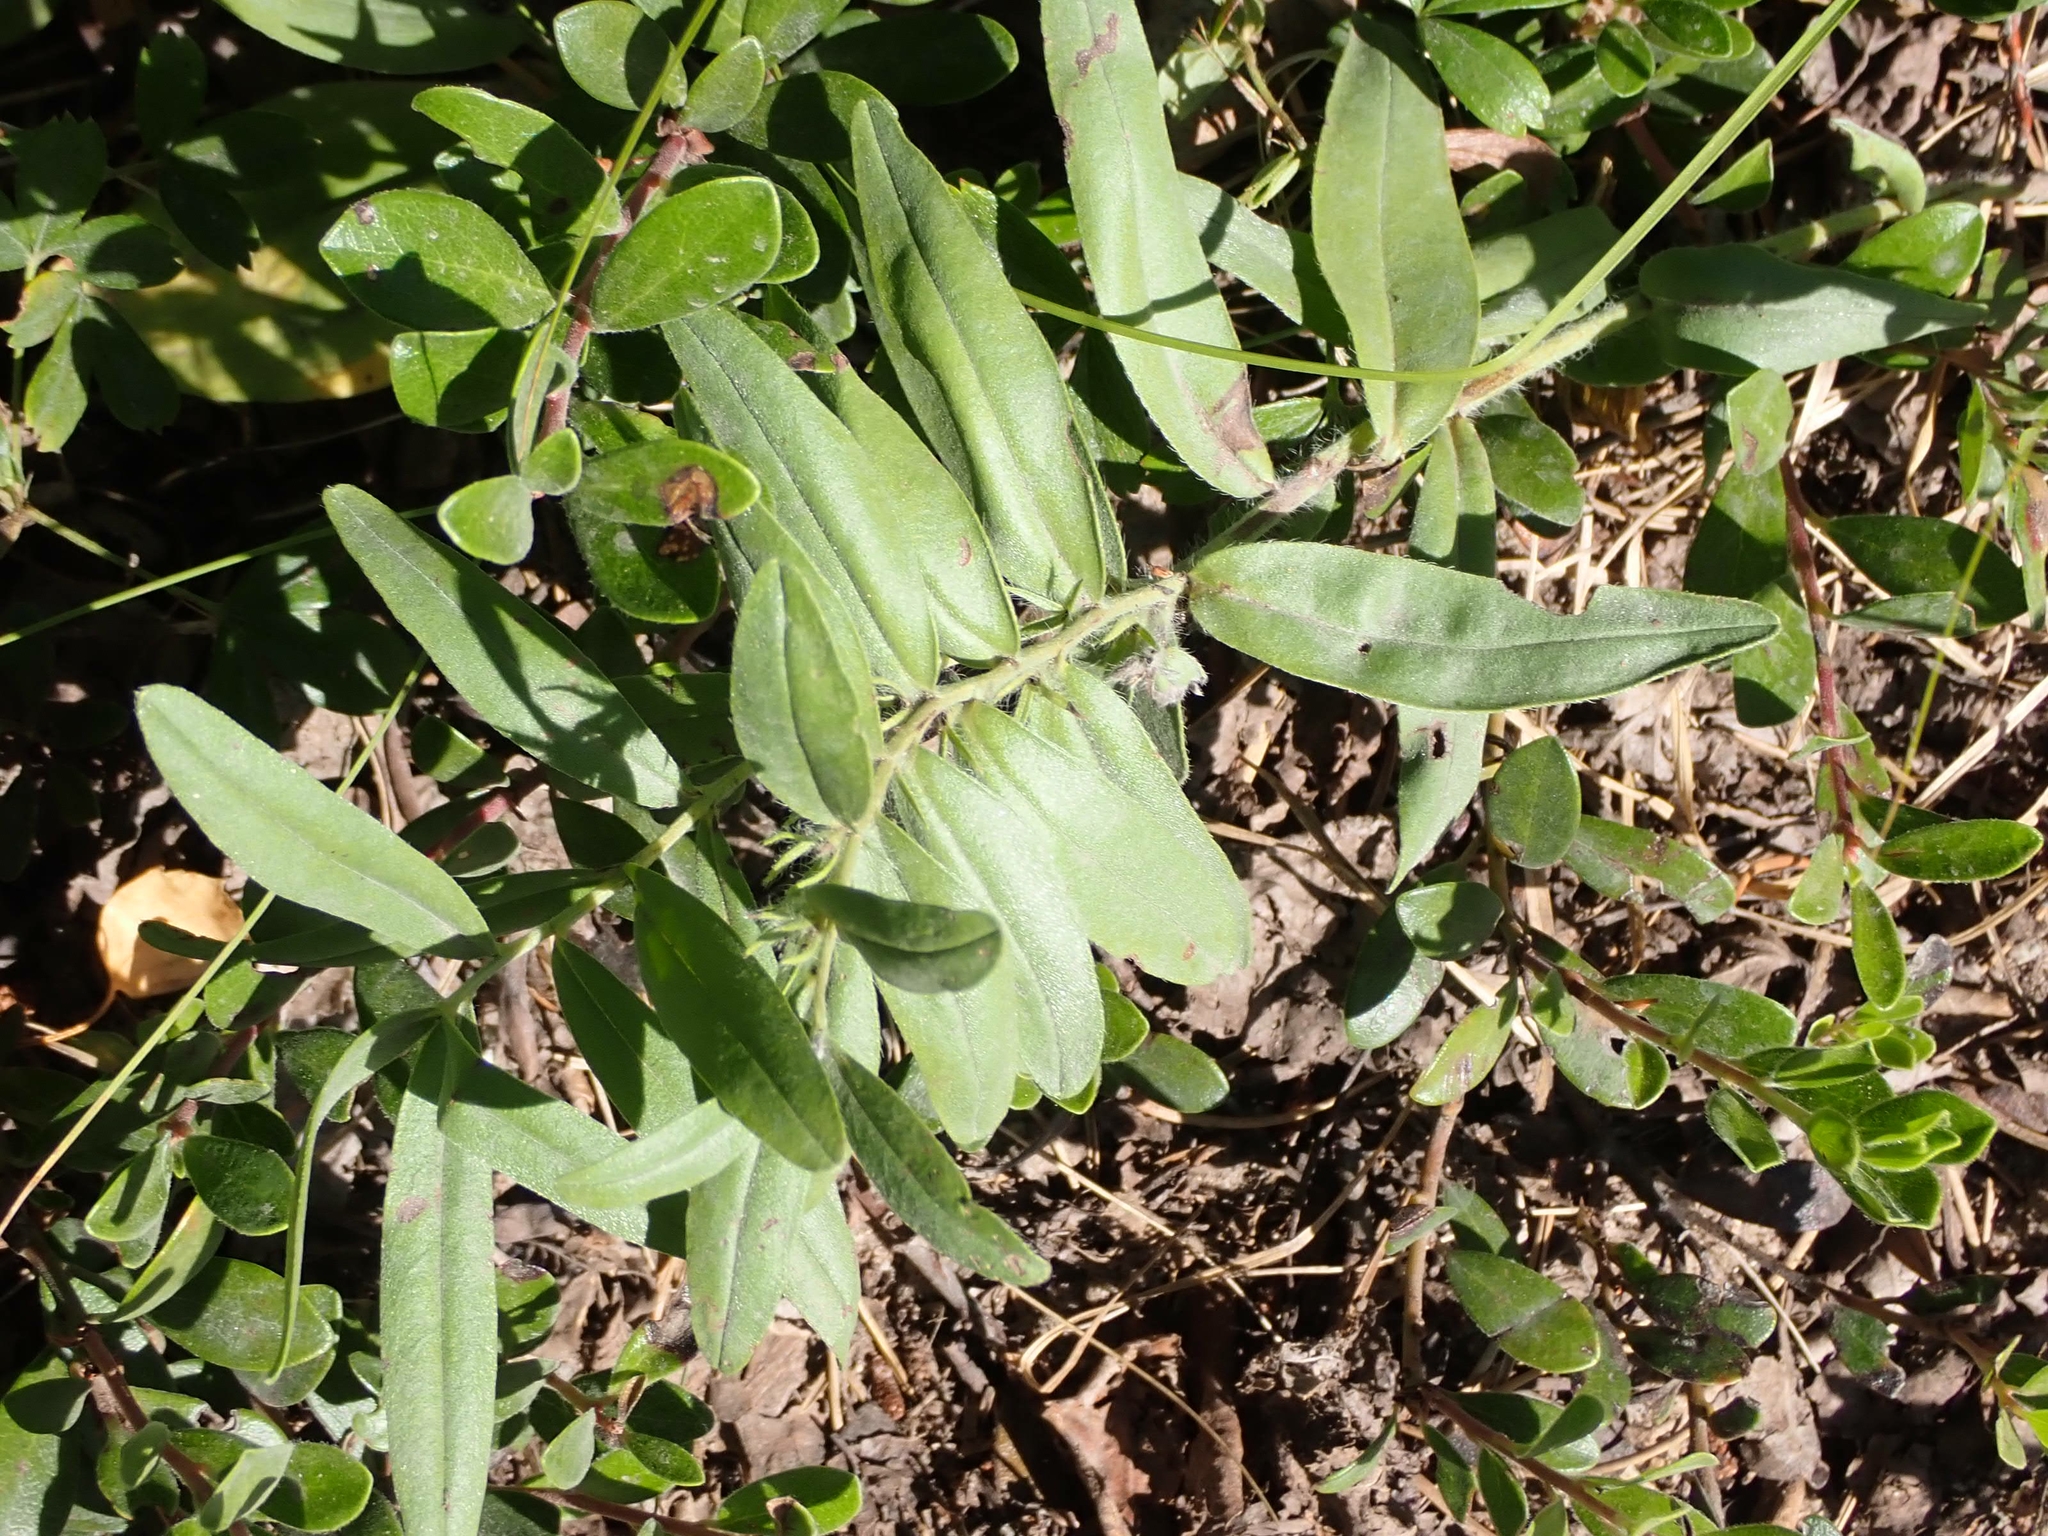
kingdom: Plantae
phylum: Tracheophyta
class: Magnoliopsida
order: Boraginales
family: Boraginaceae
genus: Lithospermum
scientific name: Lithospermum canescens
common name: Hoary puccoon
